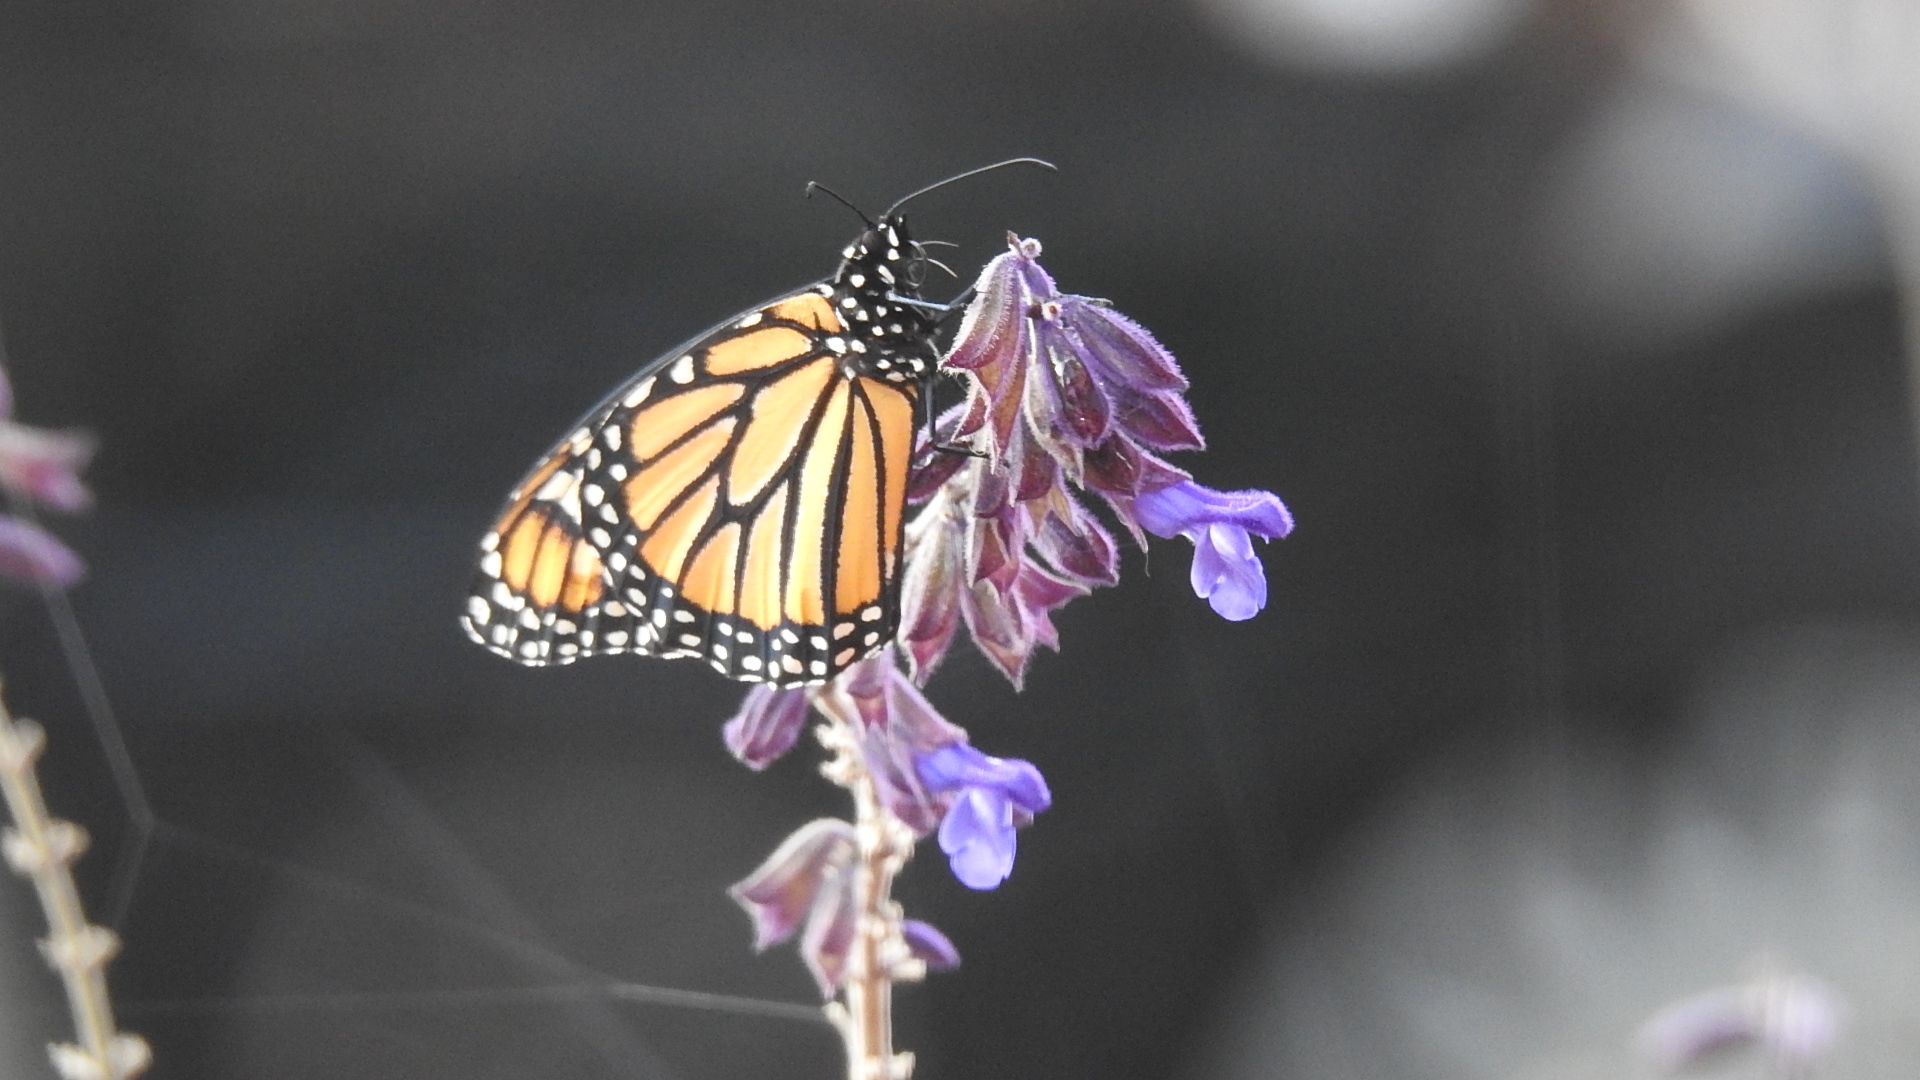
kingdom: Animalia
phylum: Arthropoda
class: Insecta
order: Lepidoptera
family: Nymphalidae
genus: Danaus
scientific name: Danaus plexippus
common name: Monarch
